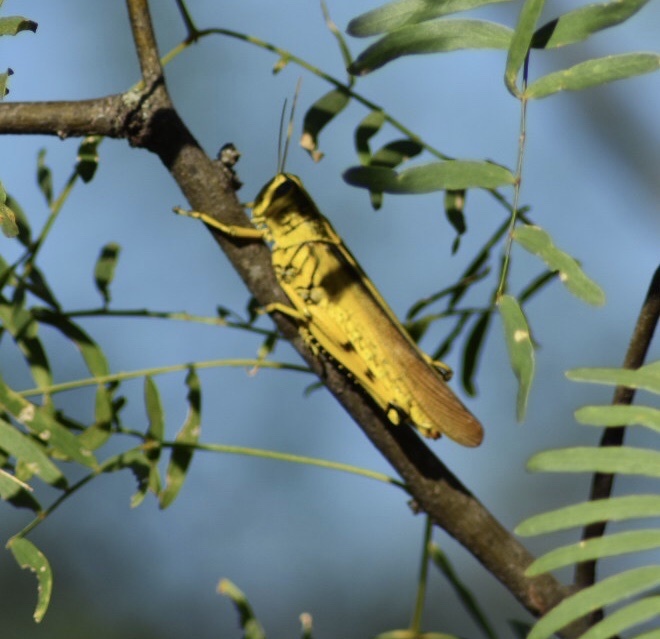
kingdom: Animalia
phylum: Arthropoda
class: Insecta
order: Orthoptera
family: Acrididae
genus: Schistocerca
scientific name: Schistocerca lineata
